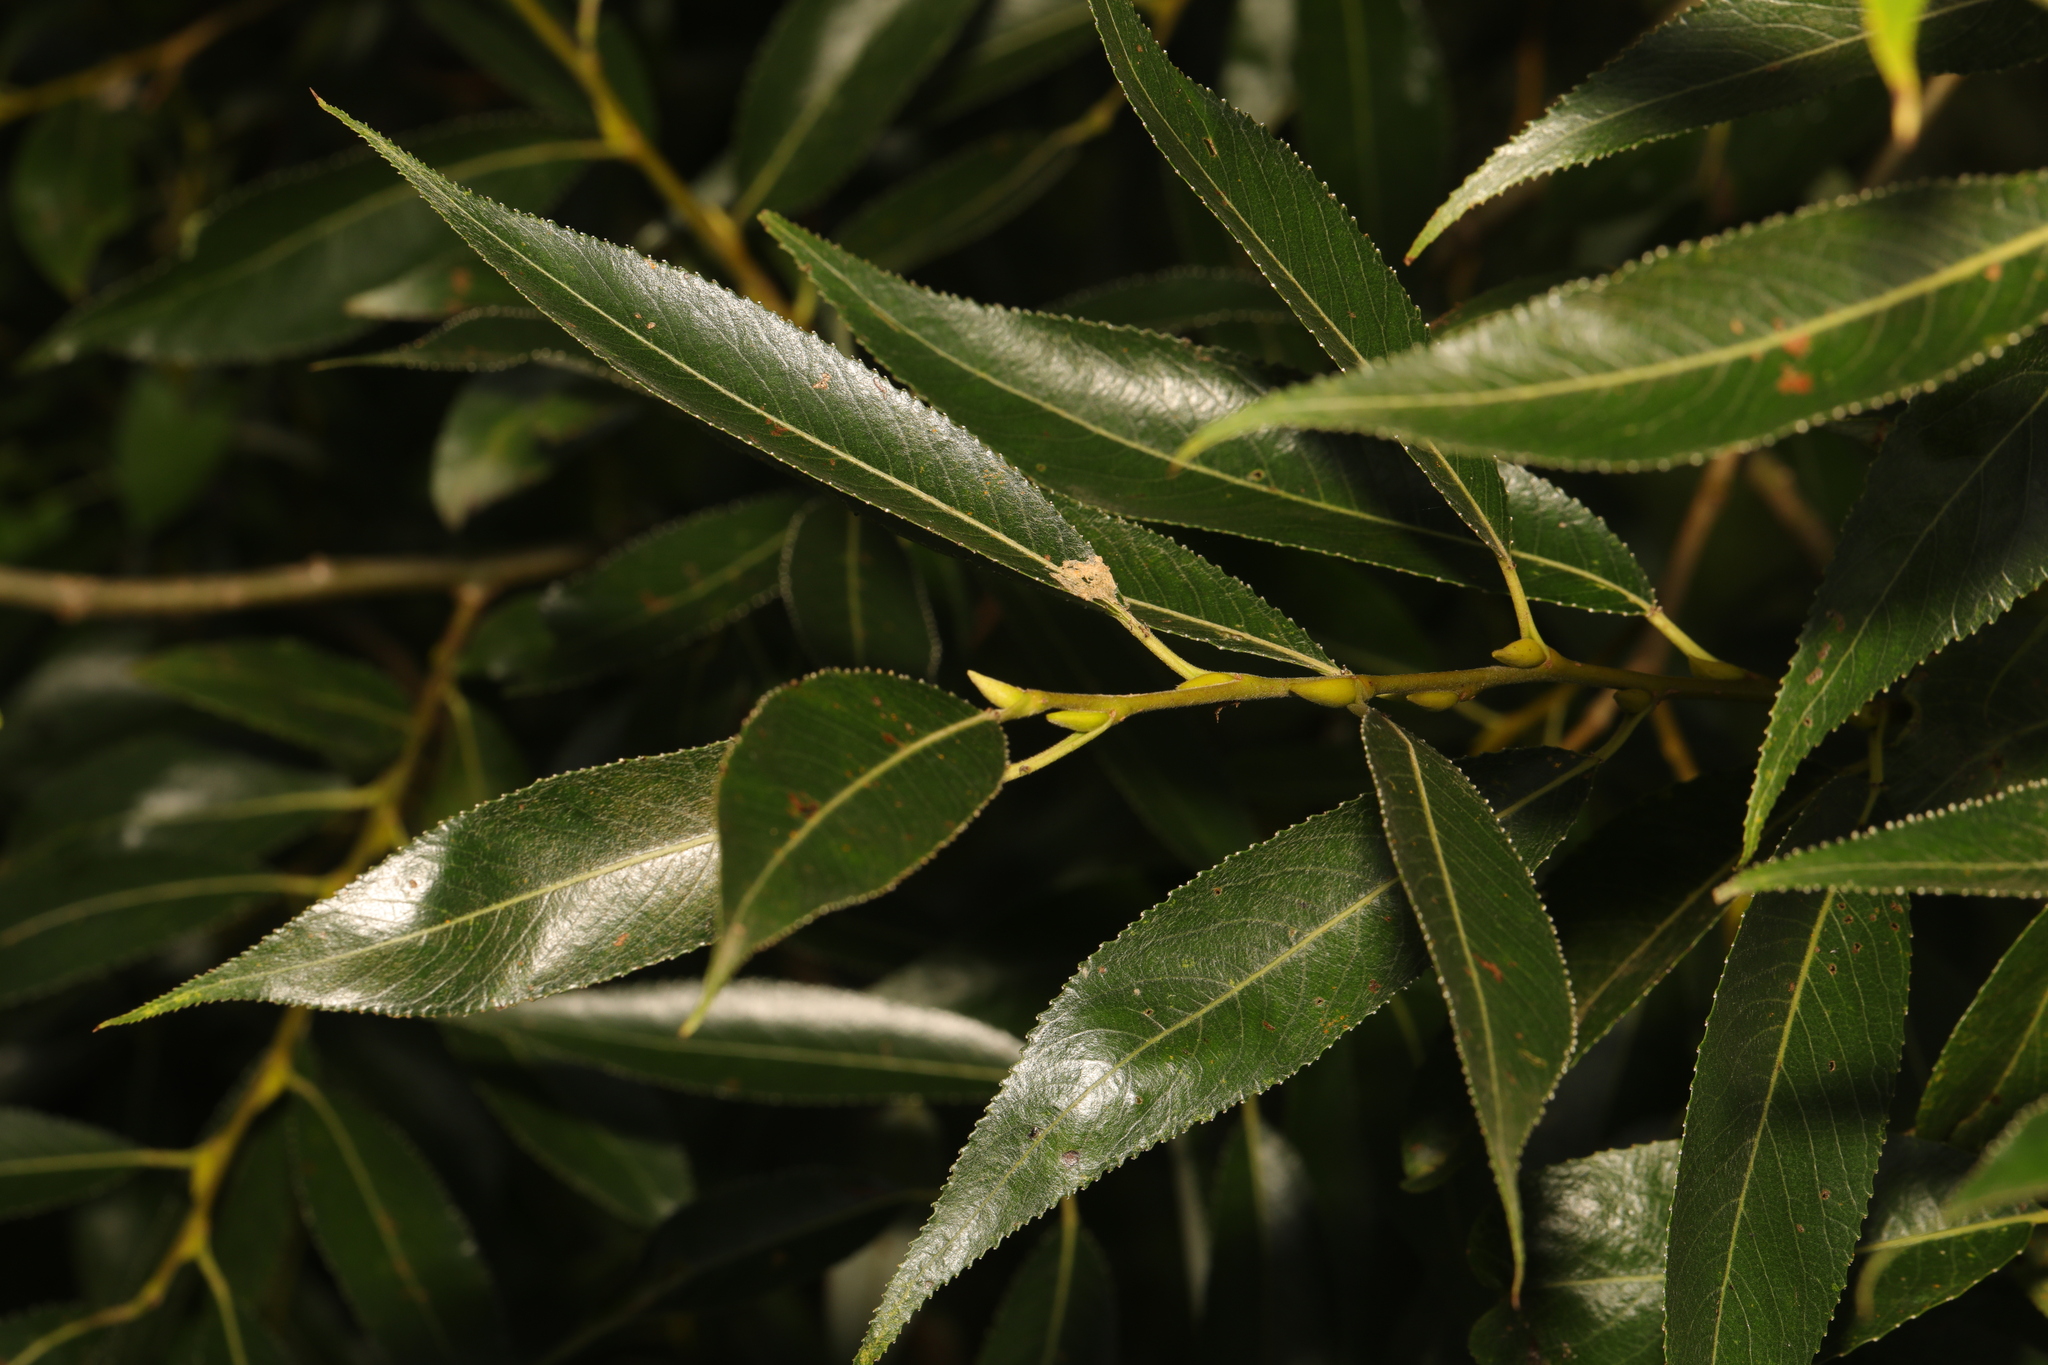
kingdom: Plantae
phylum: Tracheophyta
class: Magnoliopsida
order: Malpighiales
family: Salicaceae
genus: Salix
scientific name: Salix fragilis
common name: Crack willow
